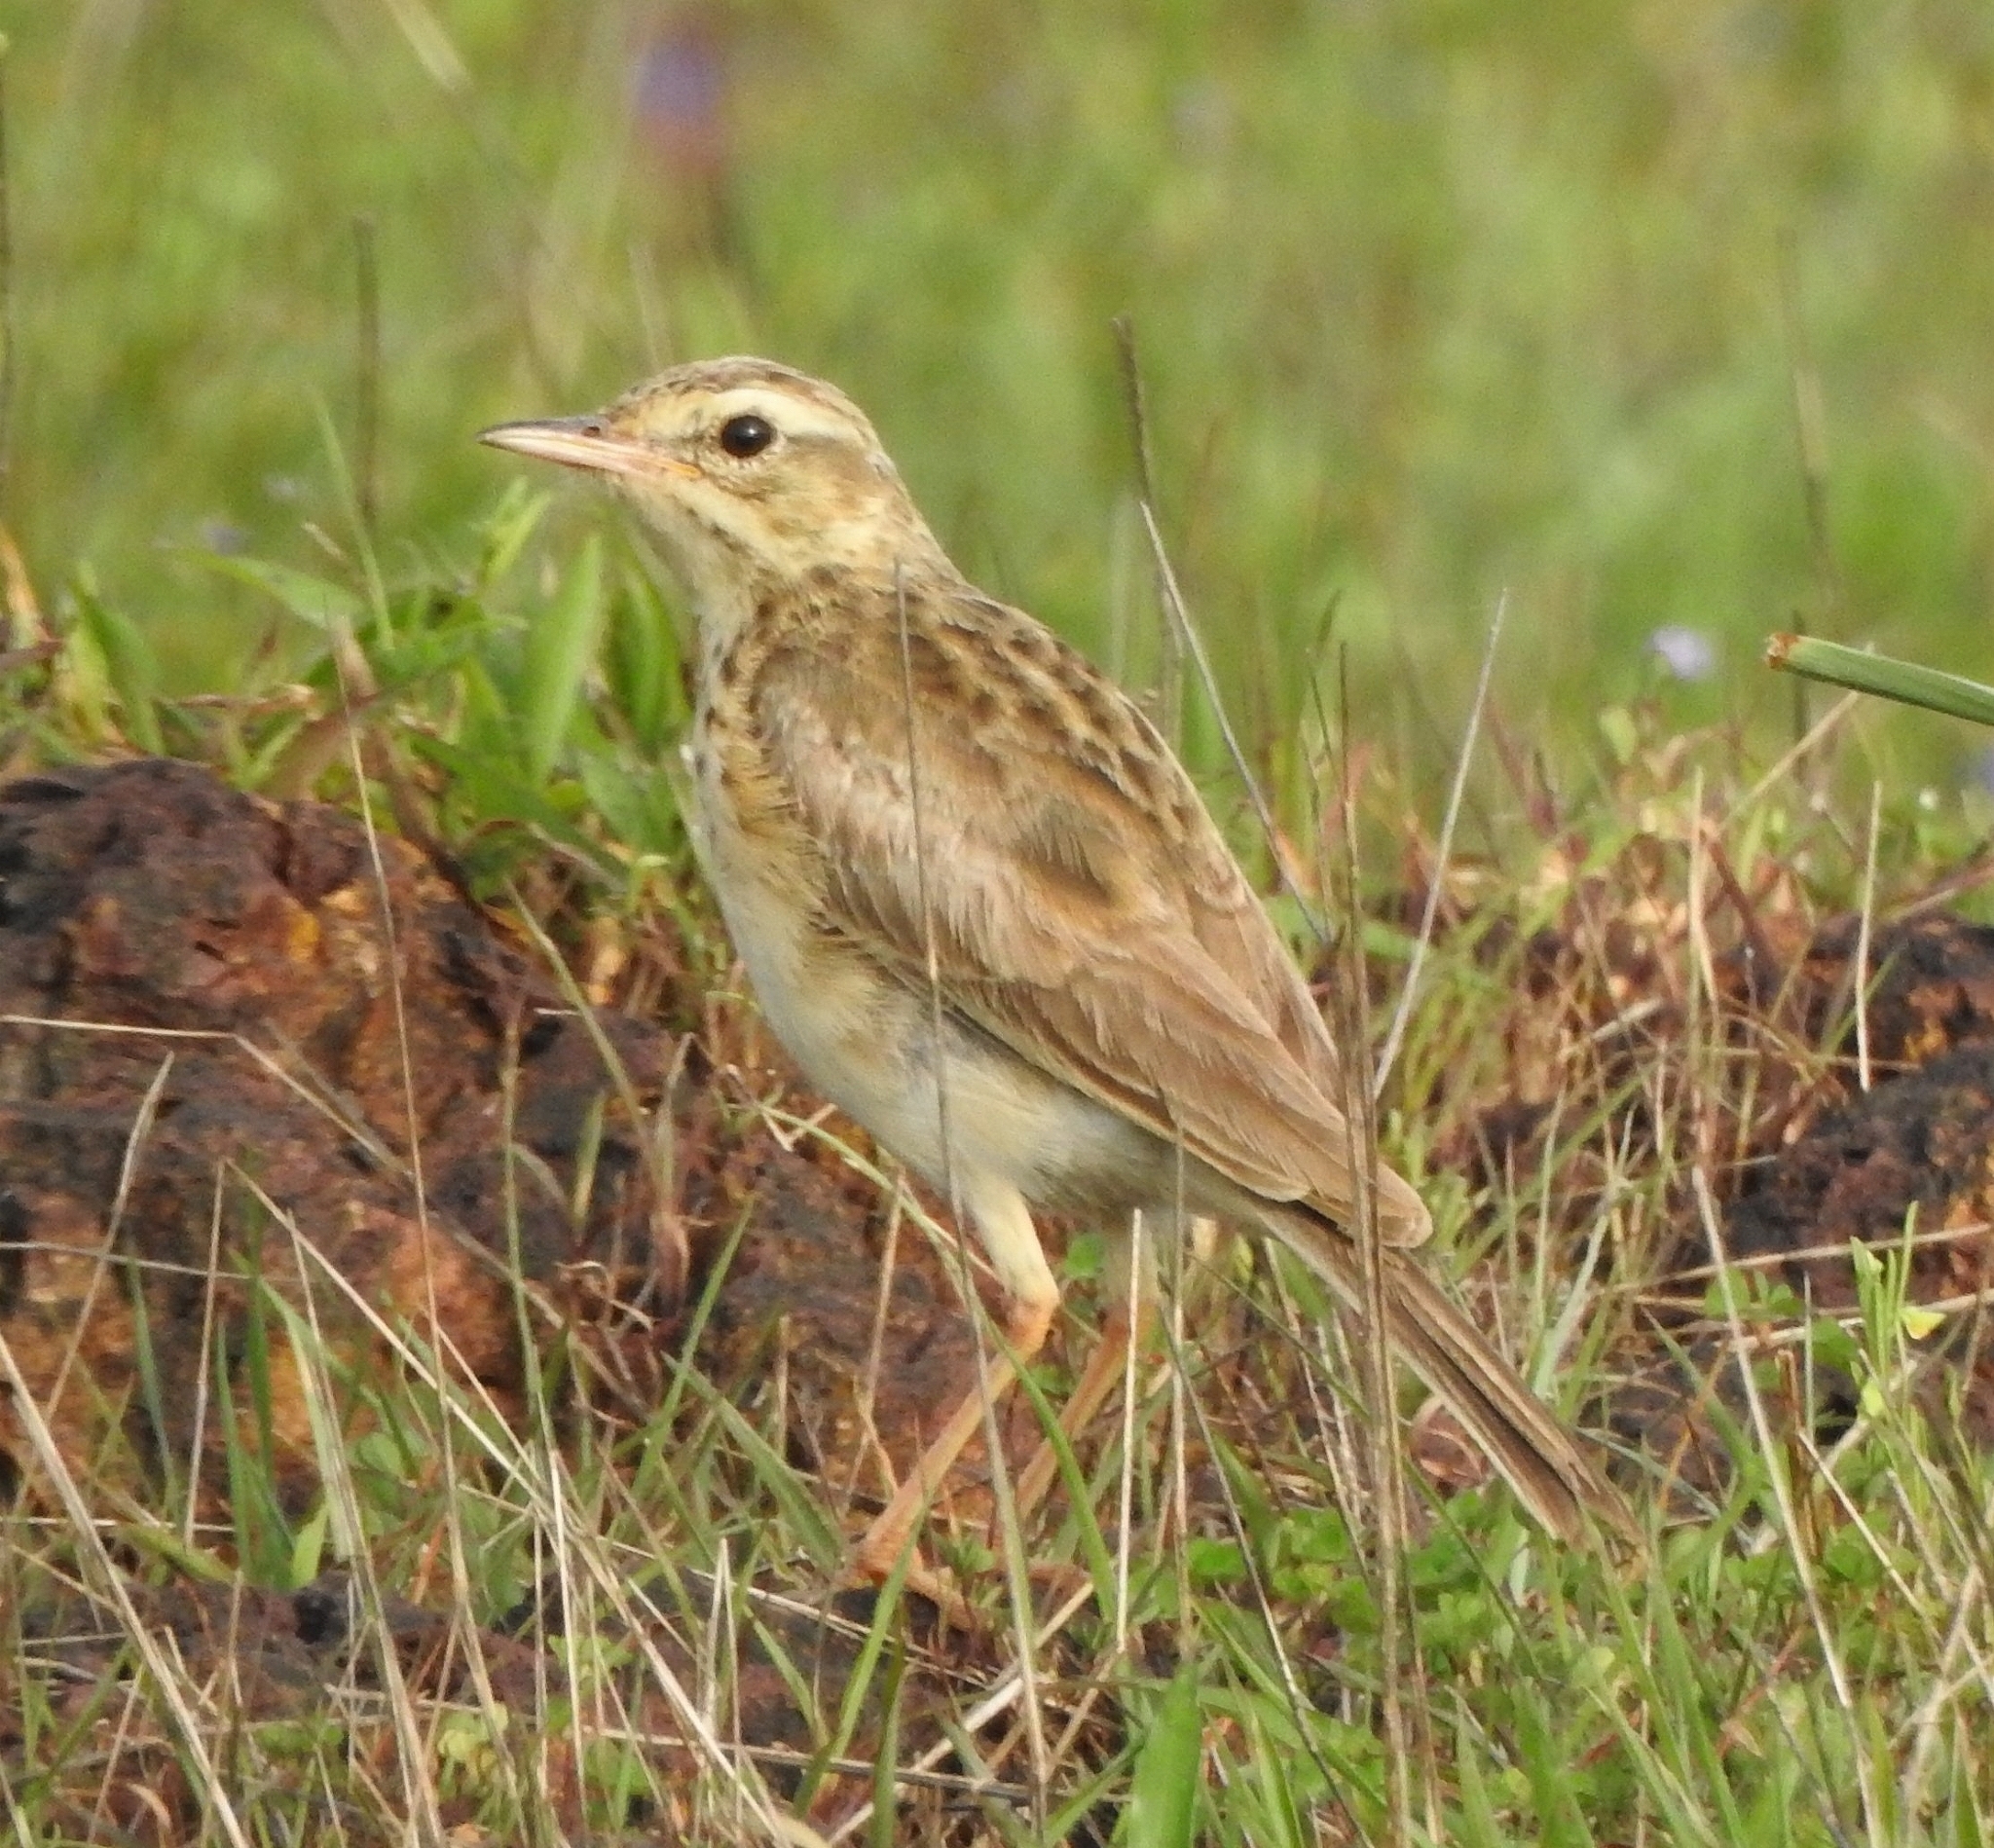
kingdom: Animalia
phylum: Chordata
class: Aves
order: Passeriformes
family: Motacillidae
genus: Anthus
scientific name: Anthus rufulus
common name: Paddyfield pipit
